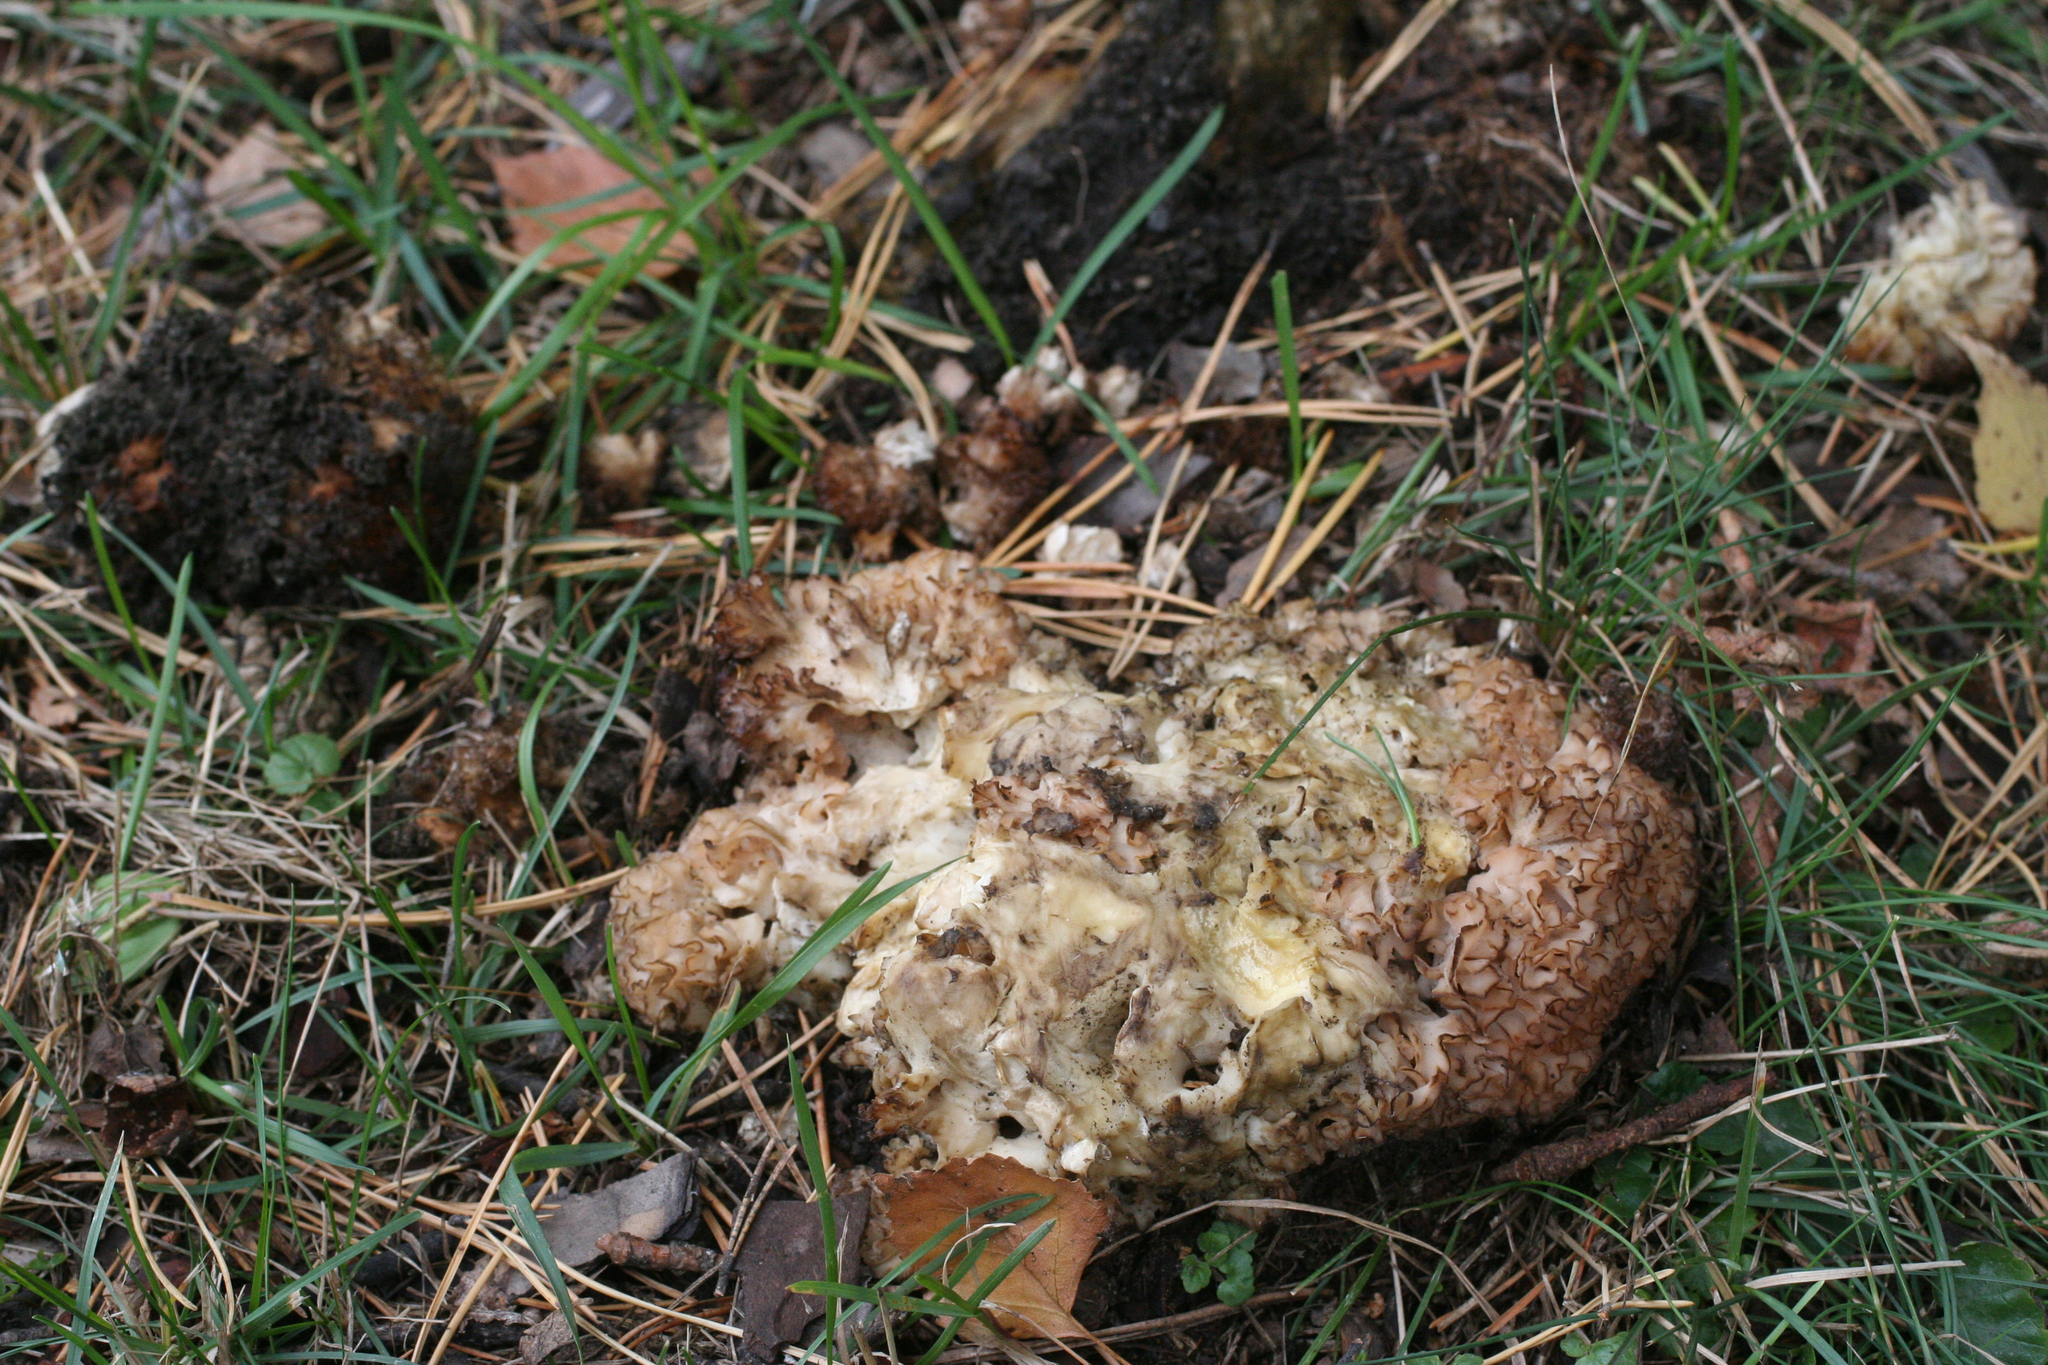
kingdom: Fungi
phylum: Basidiomycota
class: Agaricomycetes
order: Polyporales
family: Sparassidaceae
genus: Sparassis
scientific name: Sparassis crispa
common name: Brain fungus
